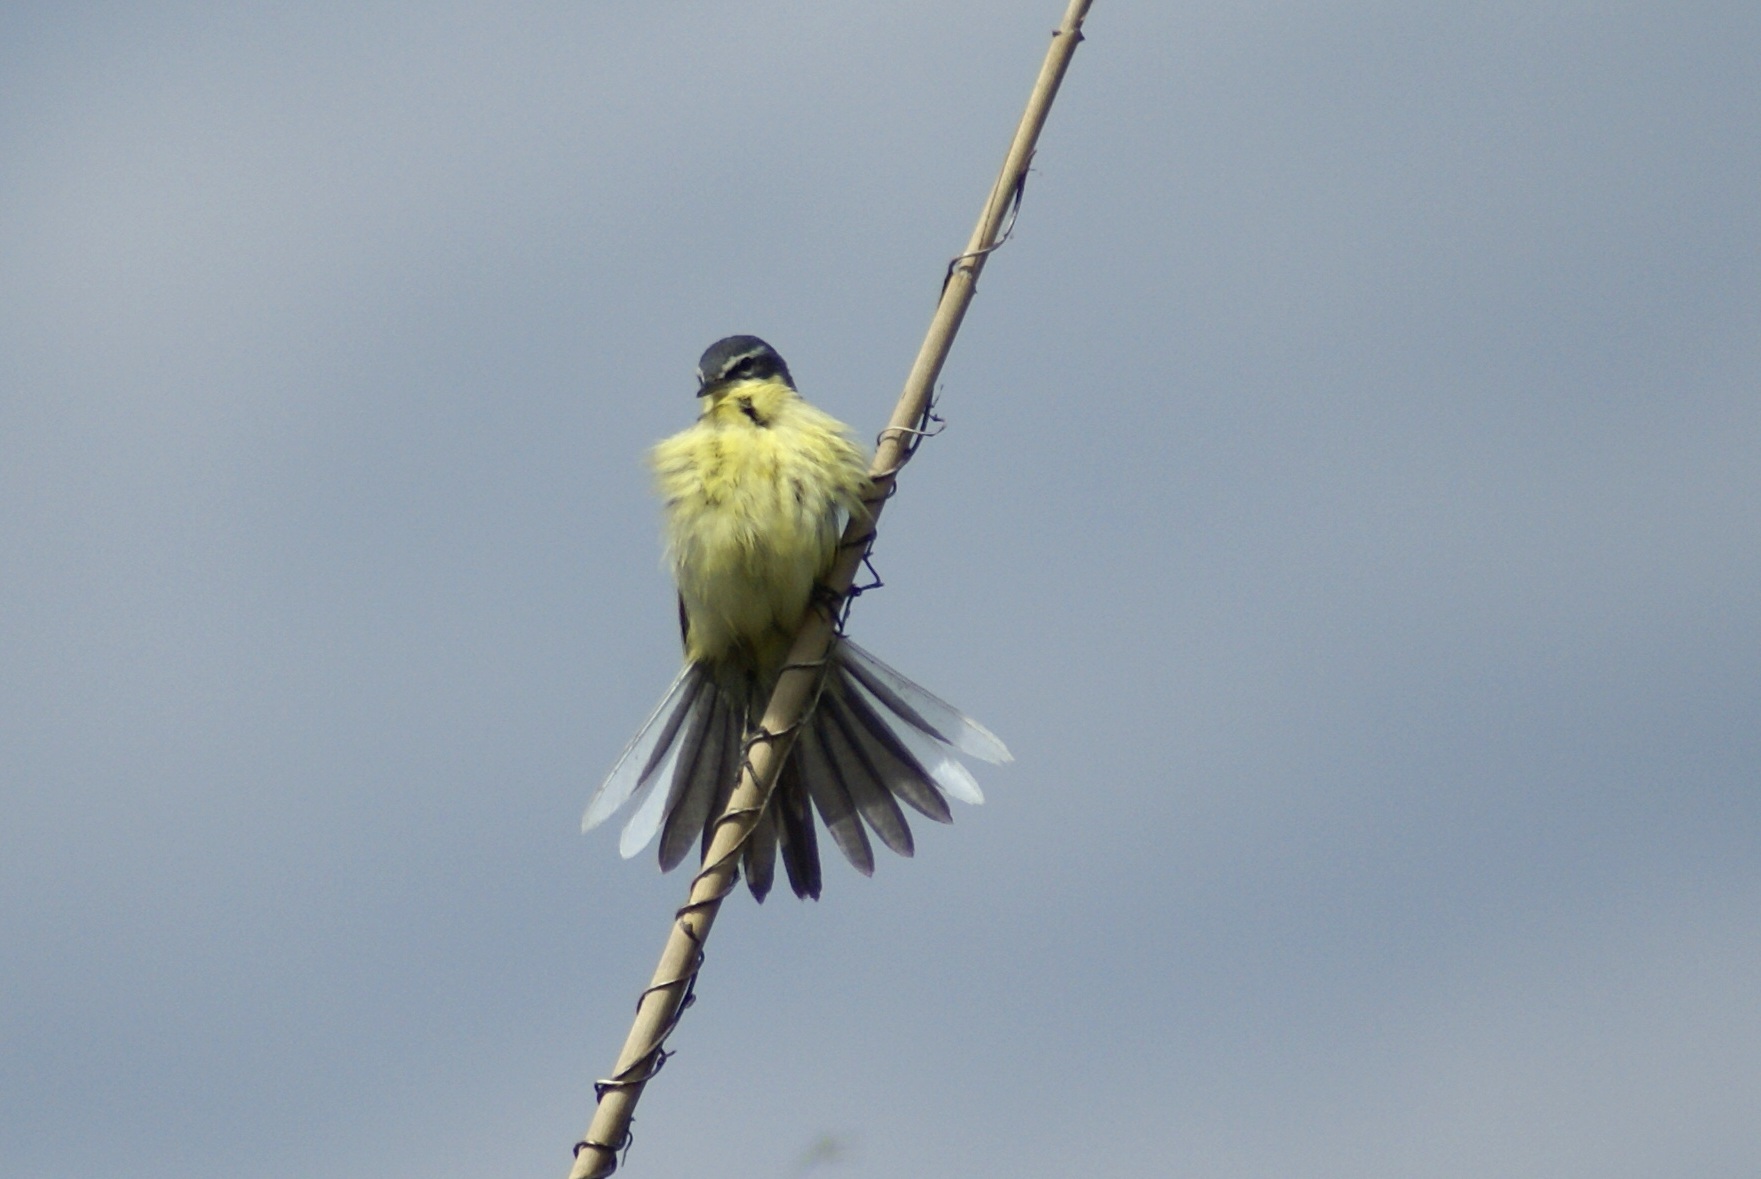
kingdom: Animalia
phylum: Chordata
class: Aves
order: Passeriformes
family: Motacillidae
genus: Motacilla
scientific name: Motacilla flava
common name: Western yellow wagtail
